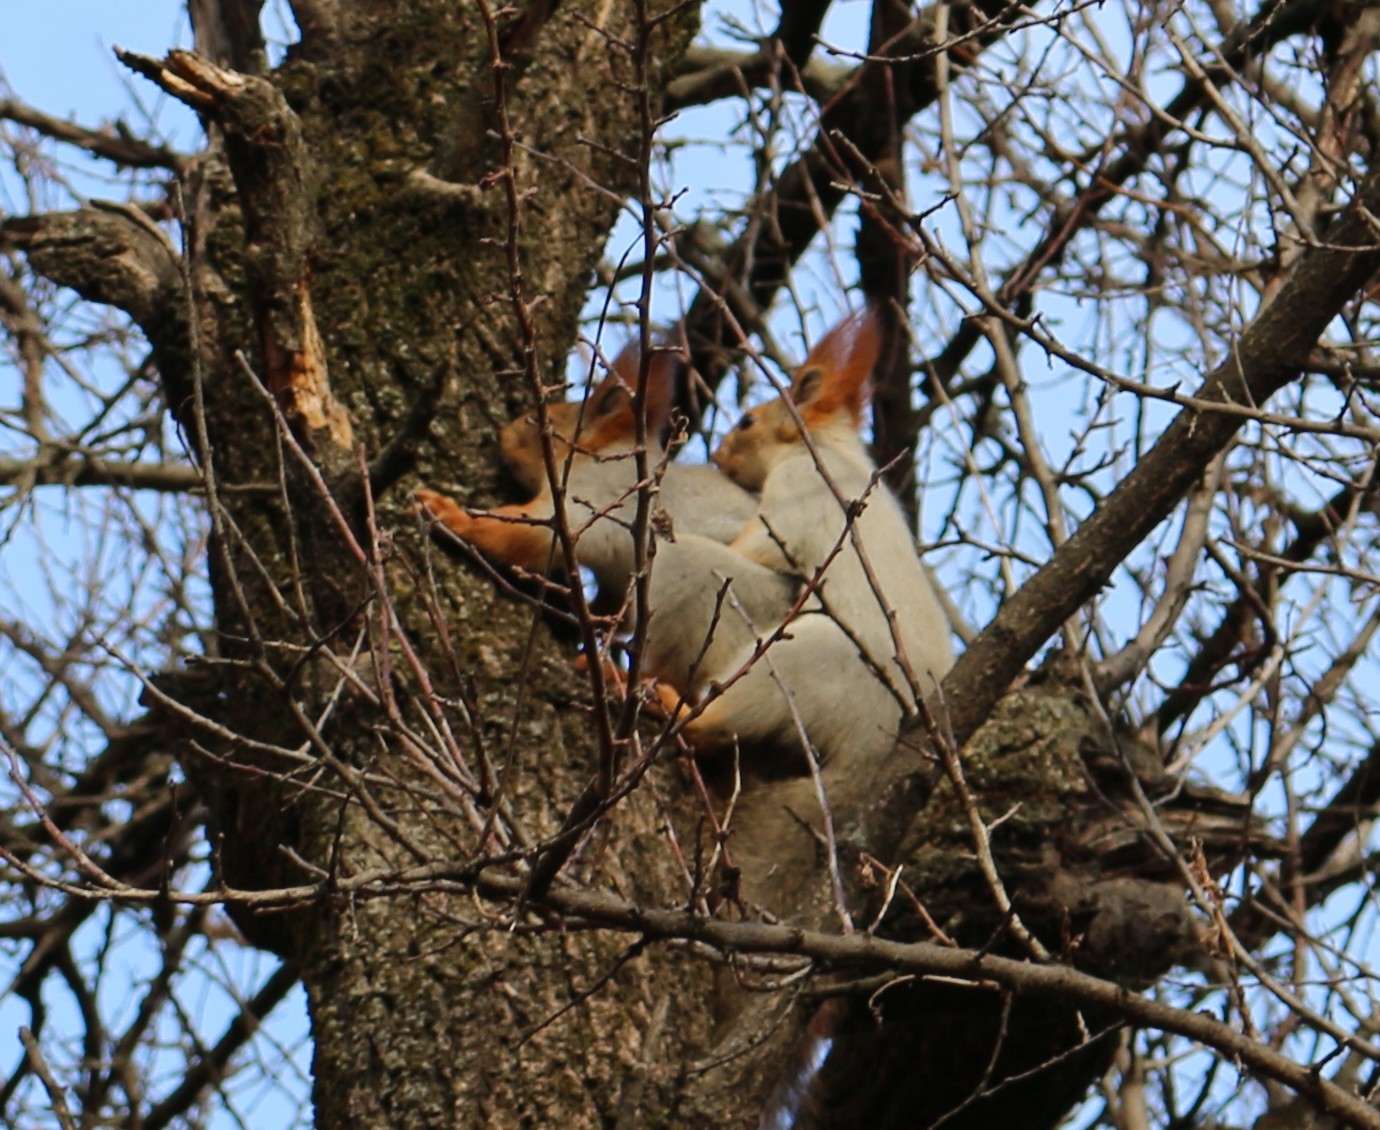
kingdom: Animalia
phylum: Chordata
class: Mammalia
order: Rodentia
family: Sciuridae
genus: Sciurus
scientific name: Sciurus vulgaris
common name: Eurasian red squirrel
